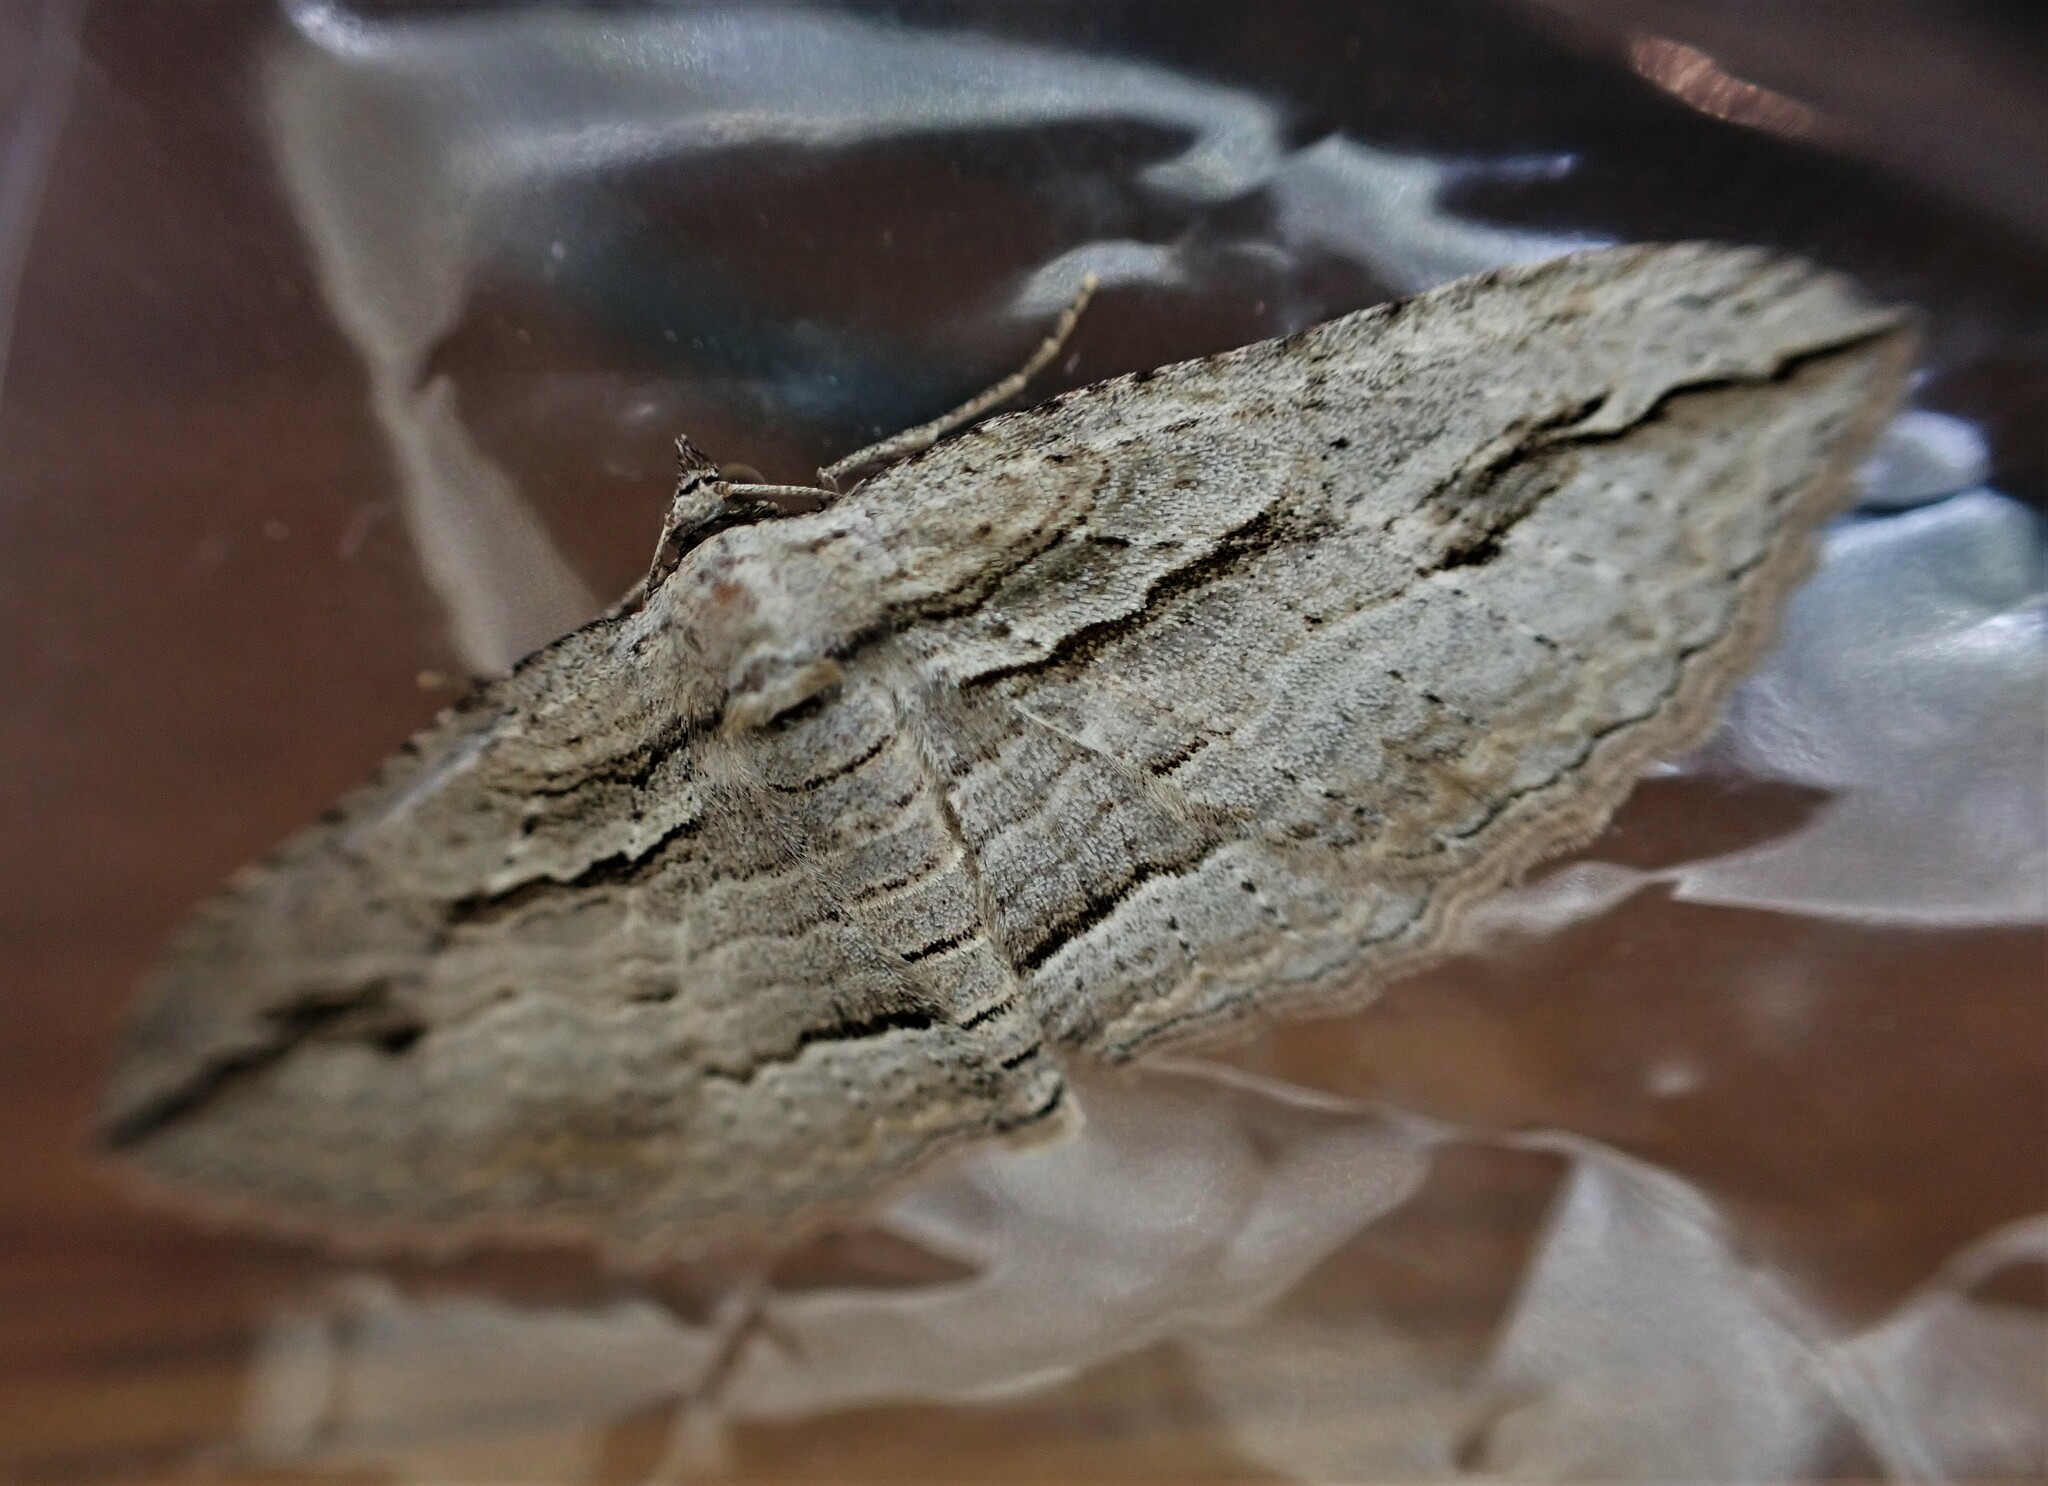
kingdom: Animalia
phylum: Arthropoda
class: Insecta
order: Lepidoptera
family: Geometridae
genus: Austrocidaria
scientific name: Austrocidaria gobiata
